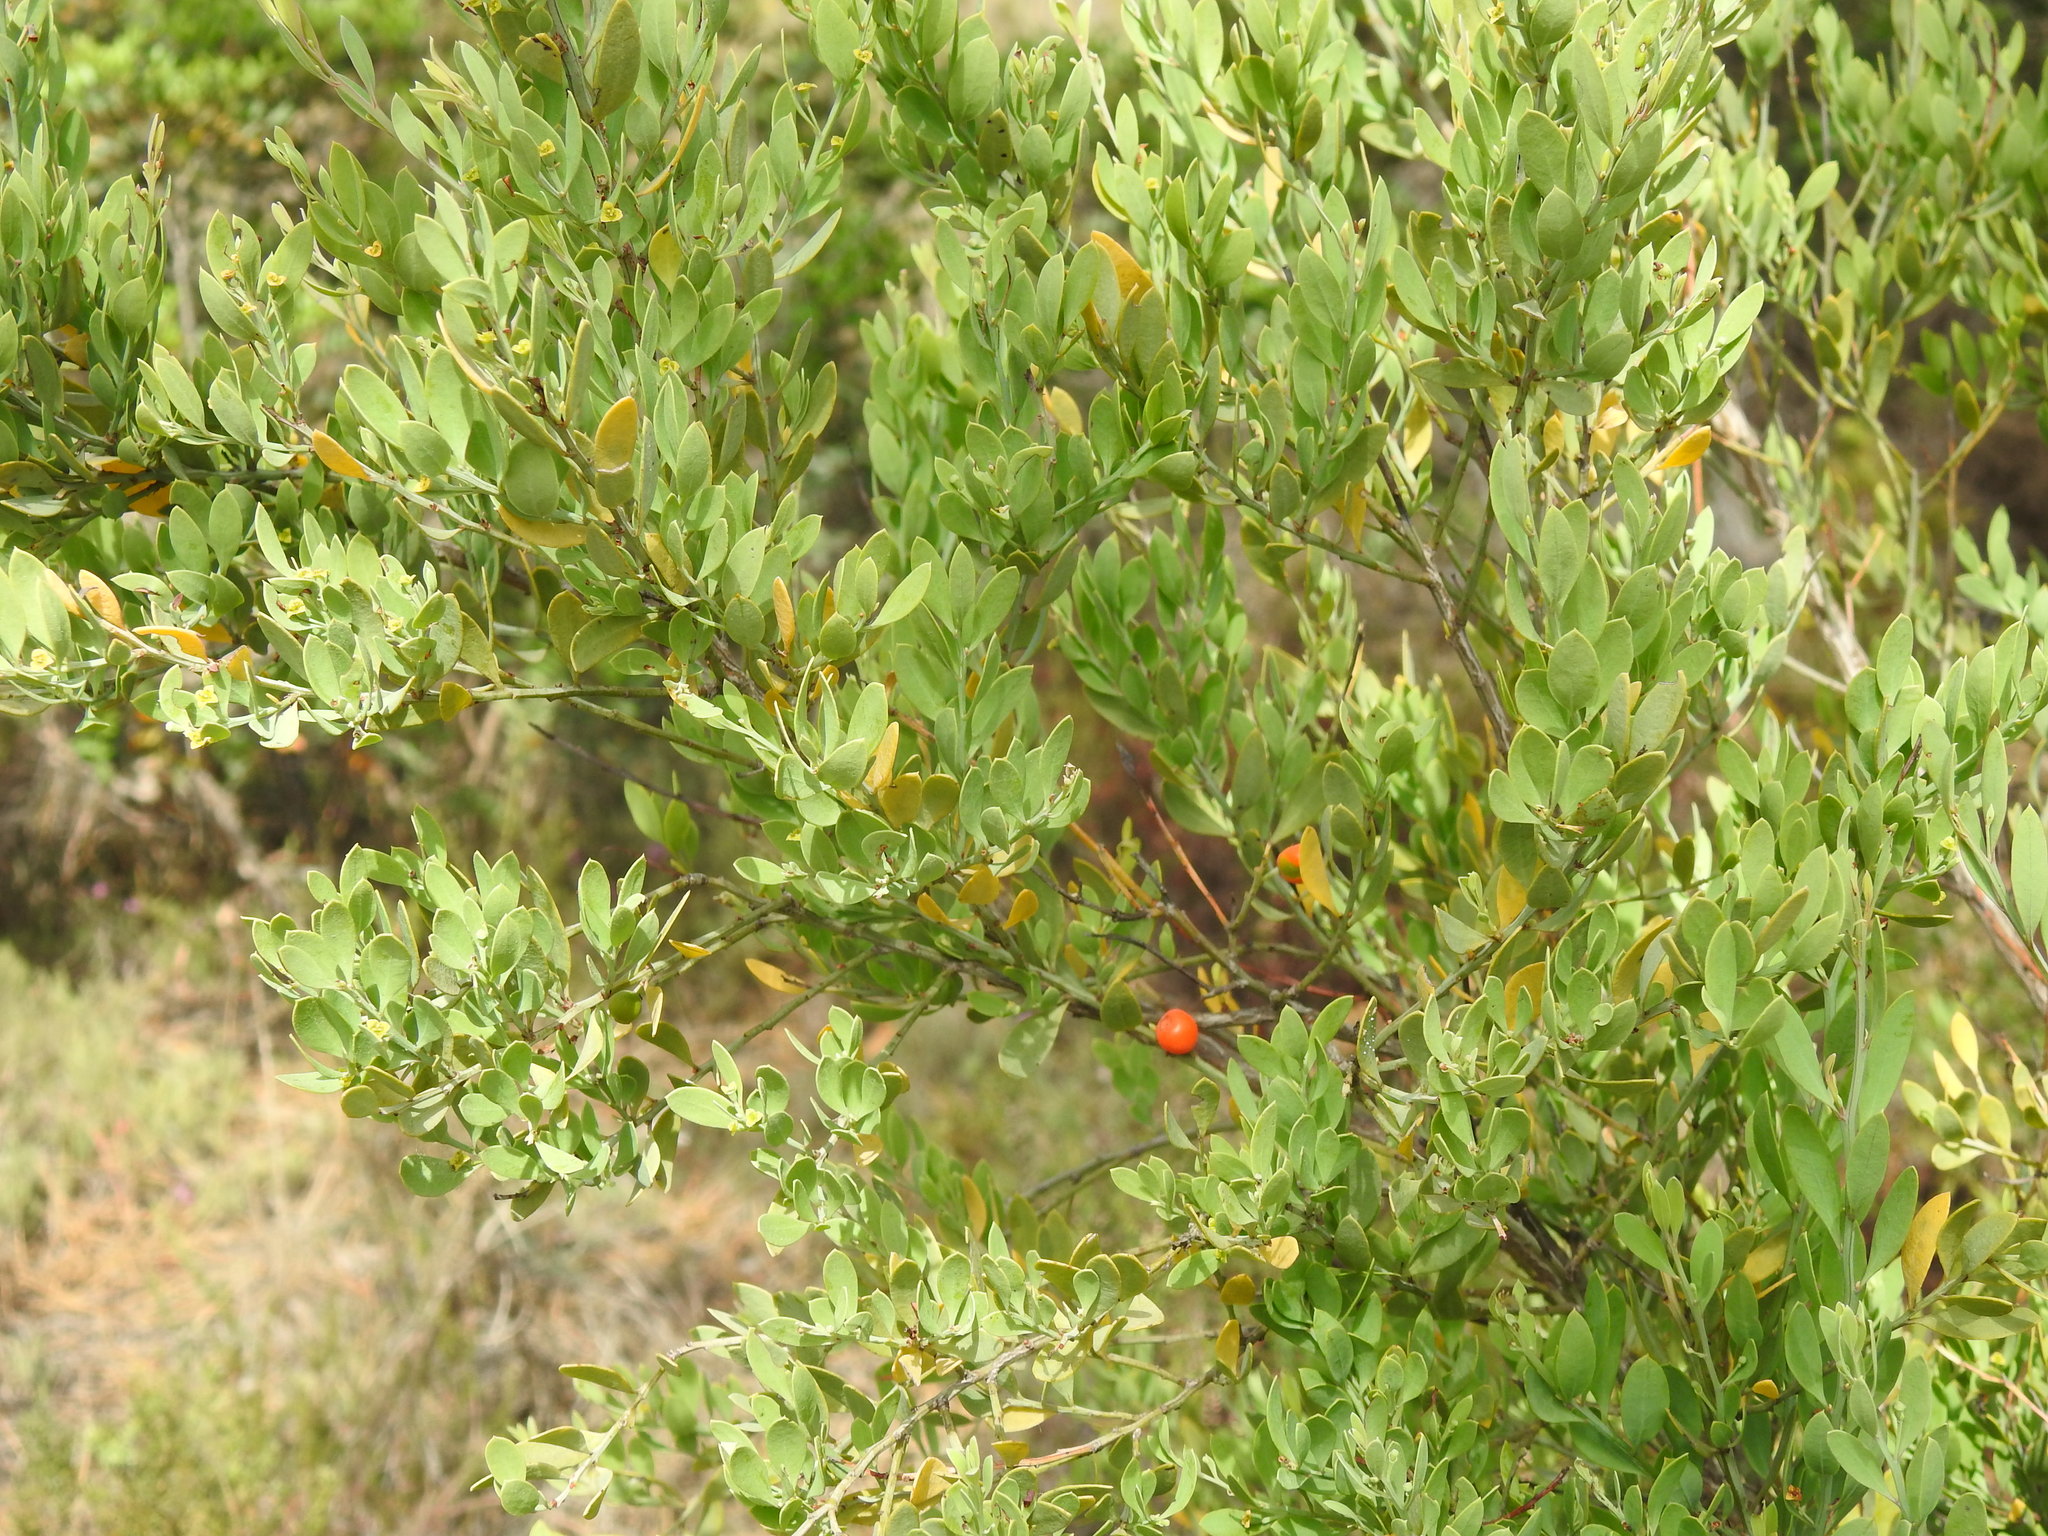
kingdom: Plantae
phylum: Tracheophyta
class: Magnoliopsida
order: Santalales
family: Santalaceae
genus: Osyris
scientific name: Osyris lanceolata
